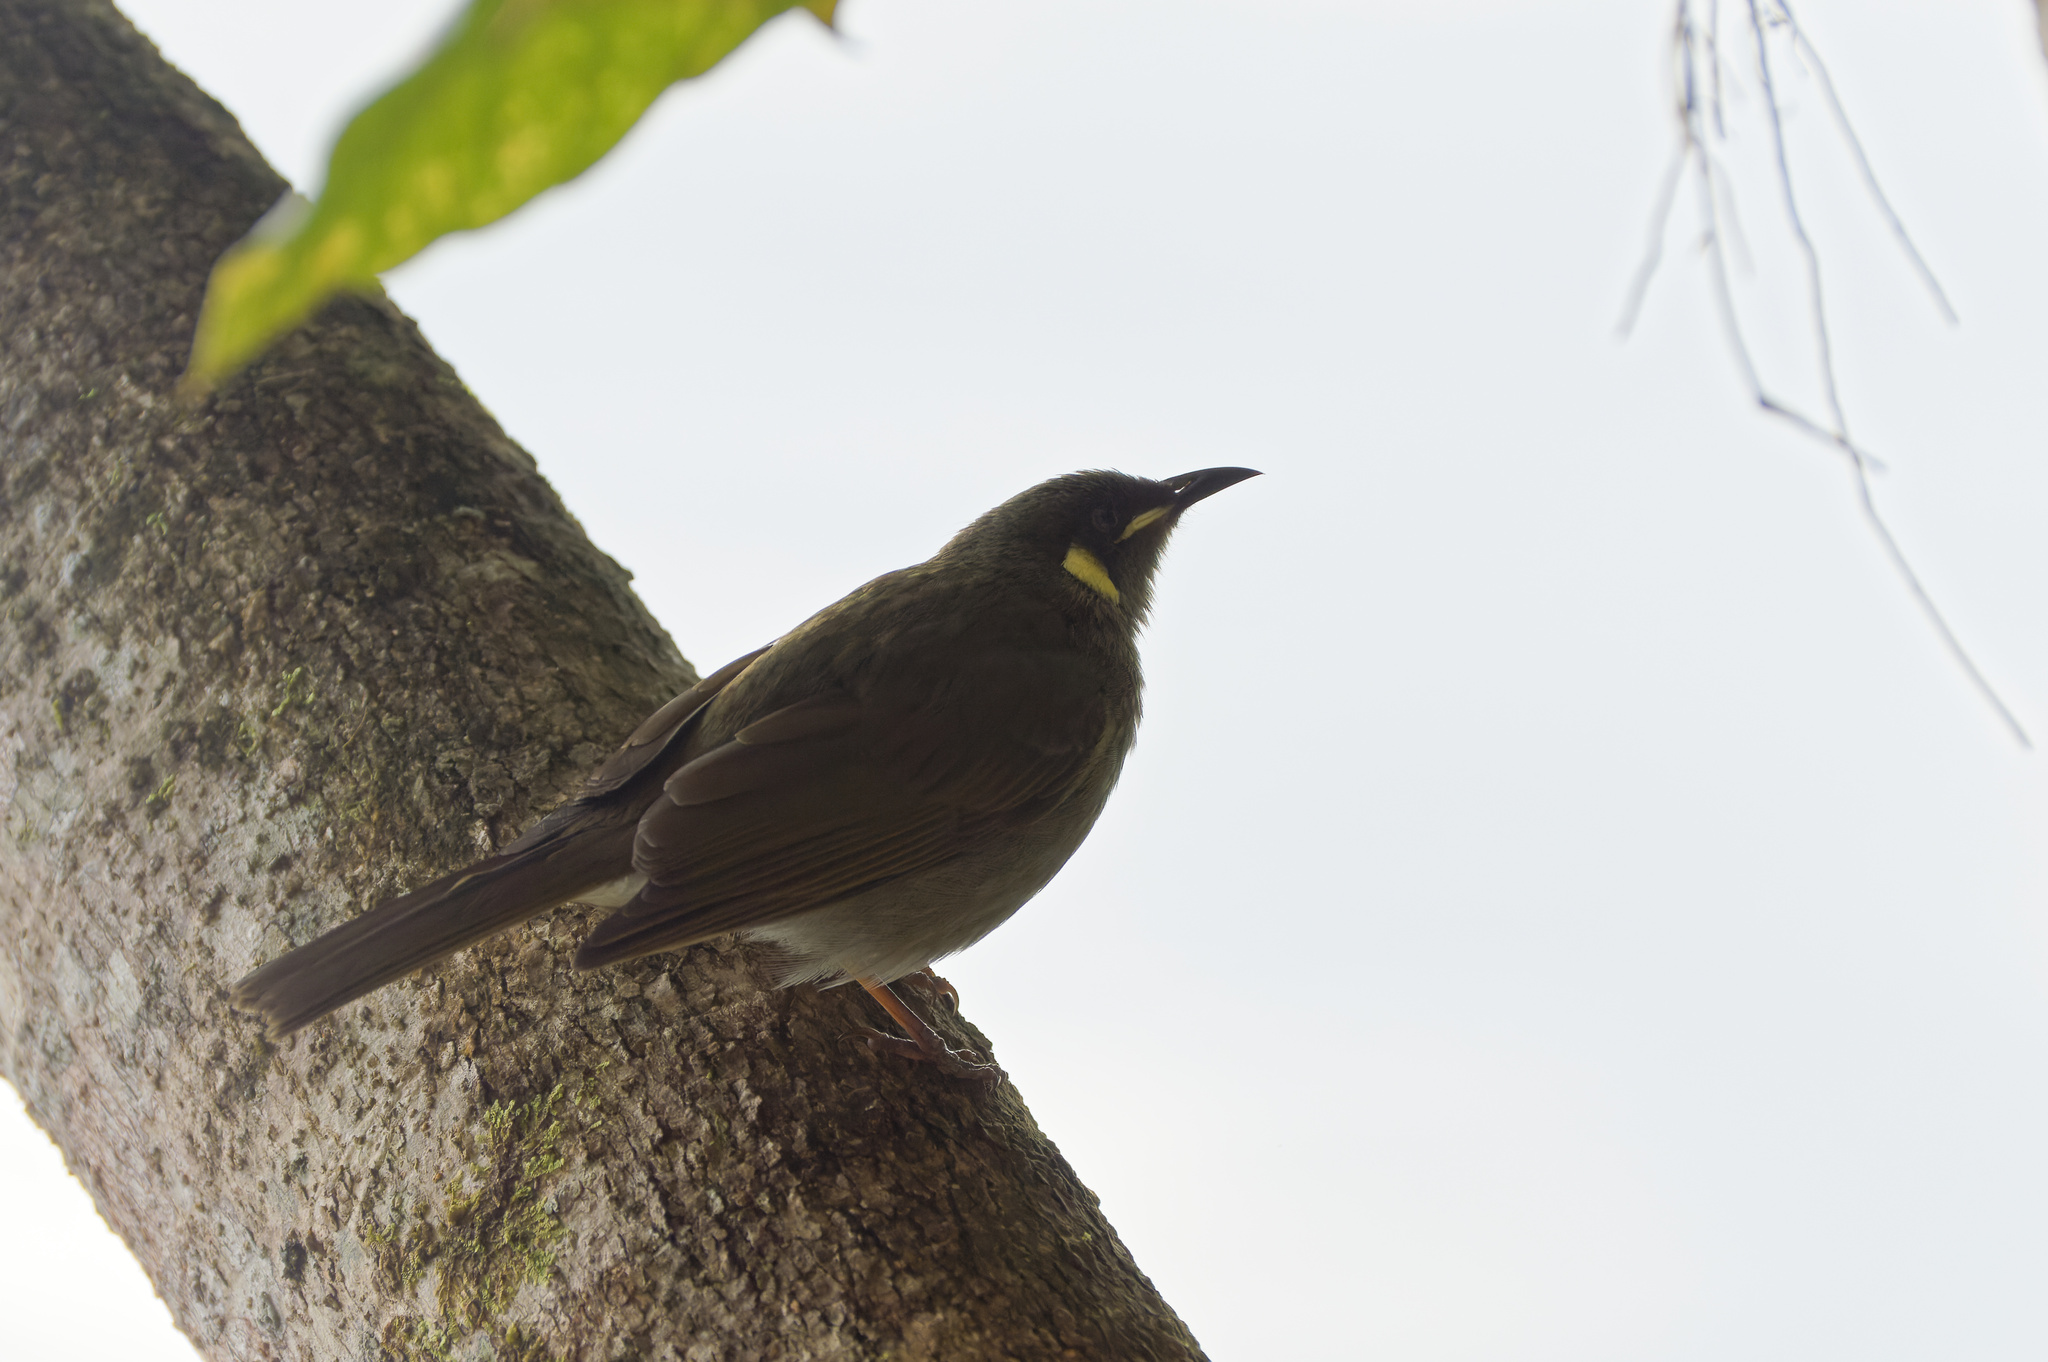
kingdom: Animalia
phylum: Chordata
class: Aves
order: Passeriformes
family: Meliphagidae
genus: Meliphaga
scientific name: Meliphaga lewinii
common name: Lewin's honeyeater
